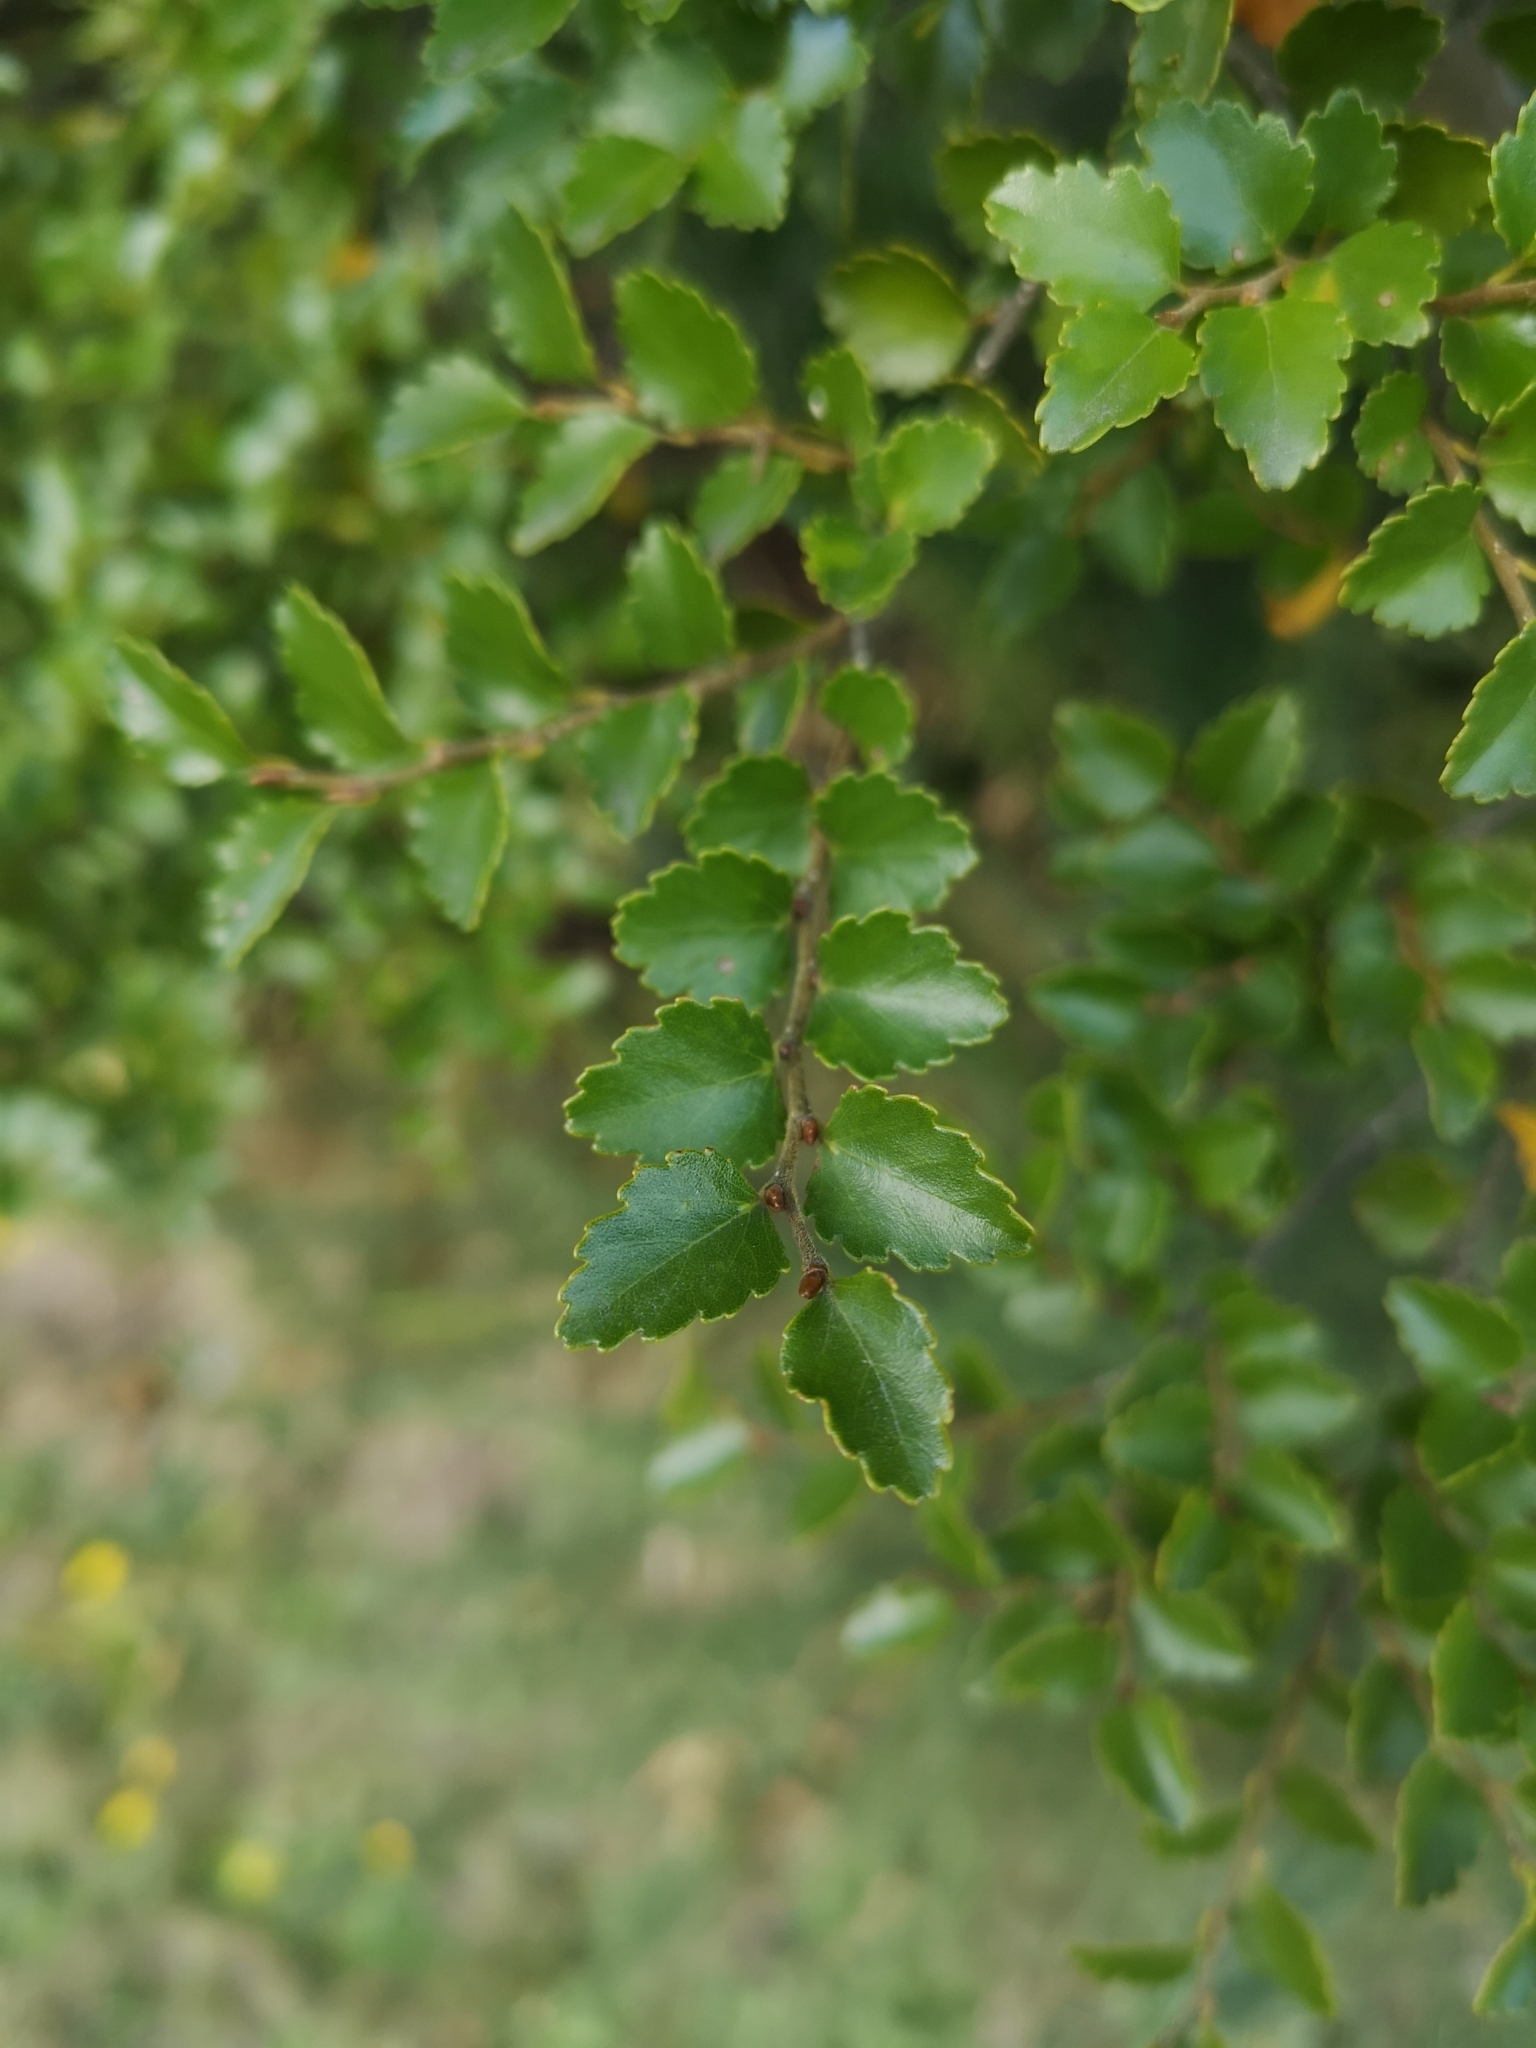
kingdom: Plantae
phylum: Tracheophyta
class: Magnoliopsida
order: Fagales
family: Nothofagaceae
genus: Nothofagus
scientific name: Nothofagus menziesii
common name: Silver beech
